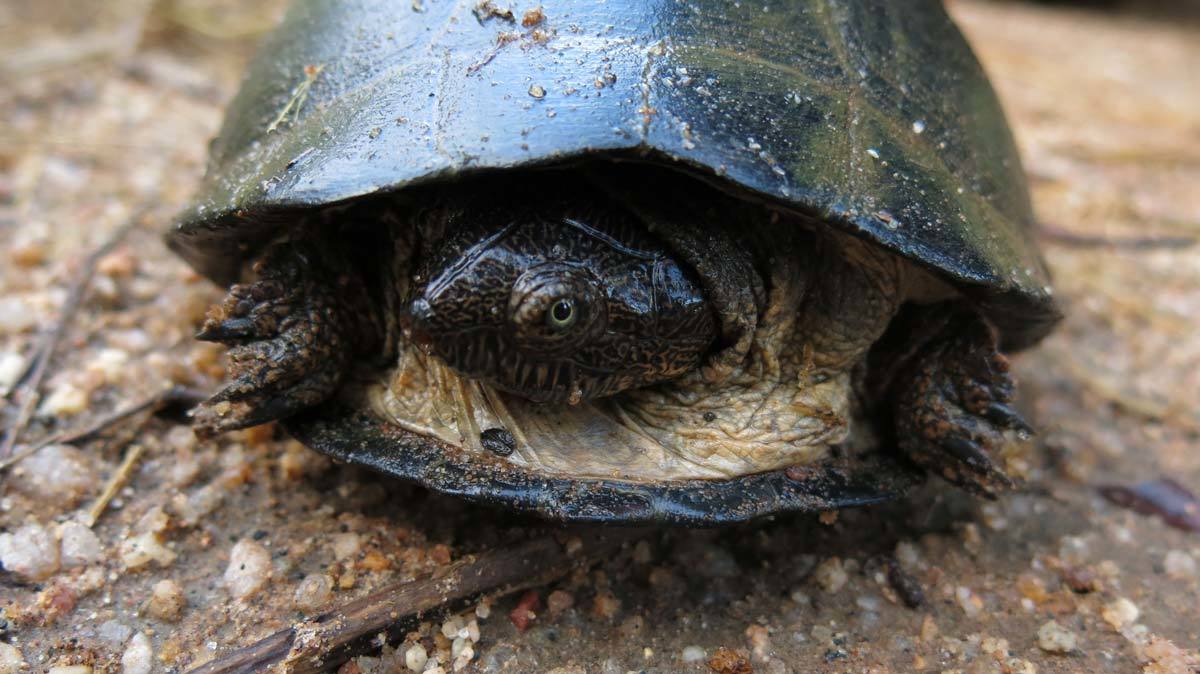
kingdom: Animalia
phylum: Chordata
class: Testudines
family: Pelomedusidae
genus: Pelusios
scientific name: Pelusios sinuatus
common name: Serrated hinged terrapin
